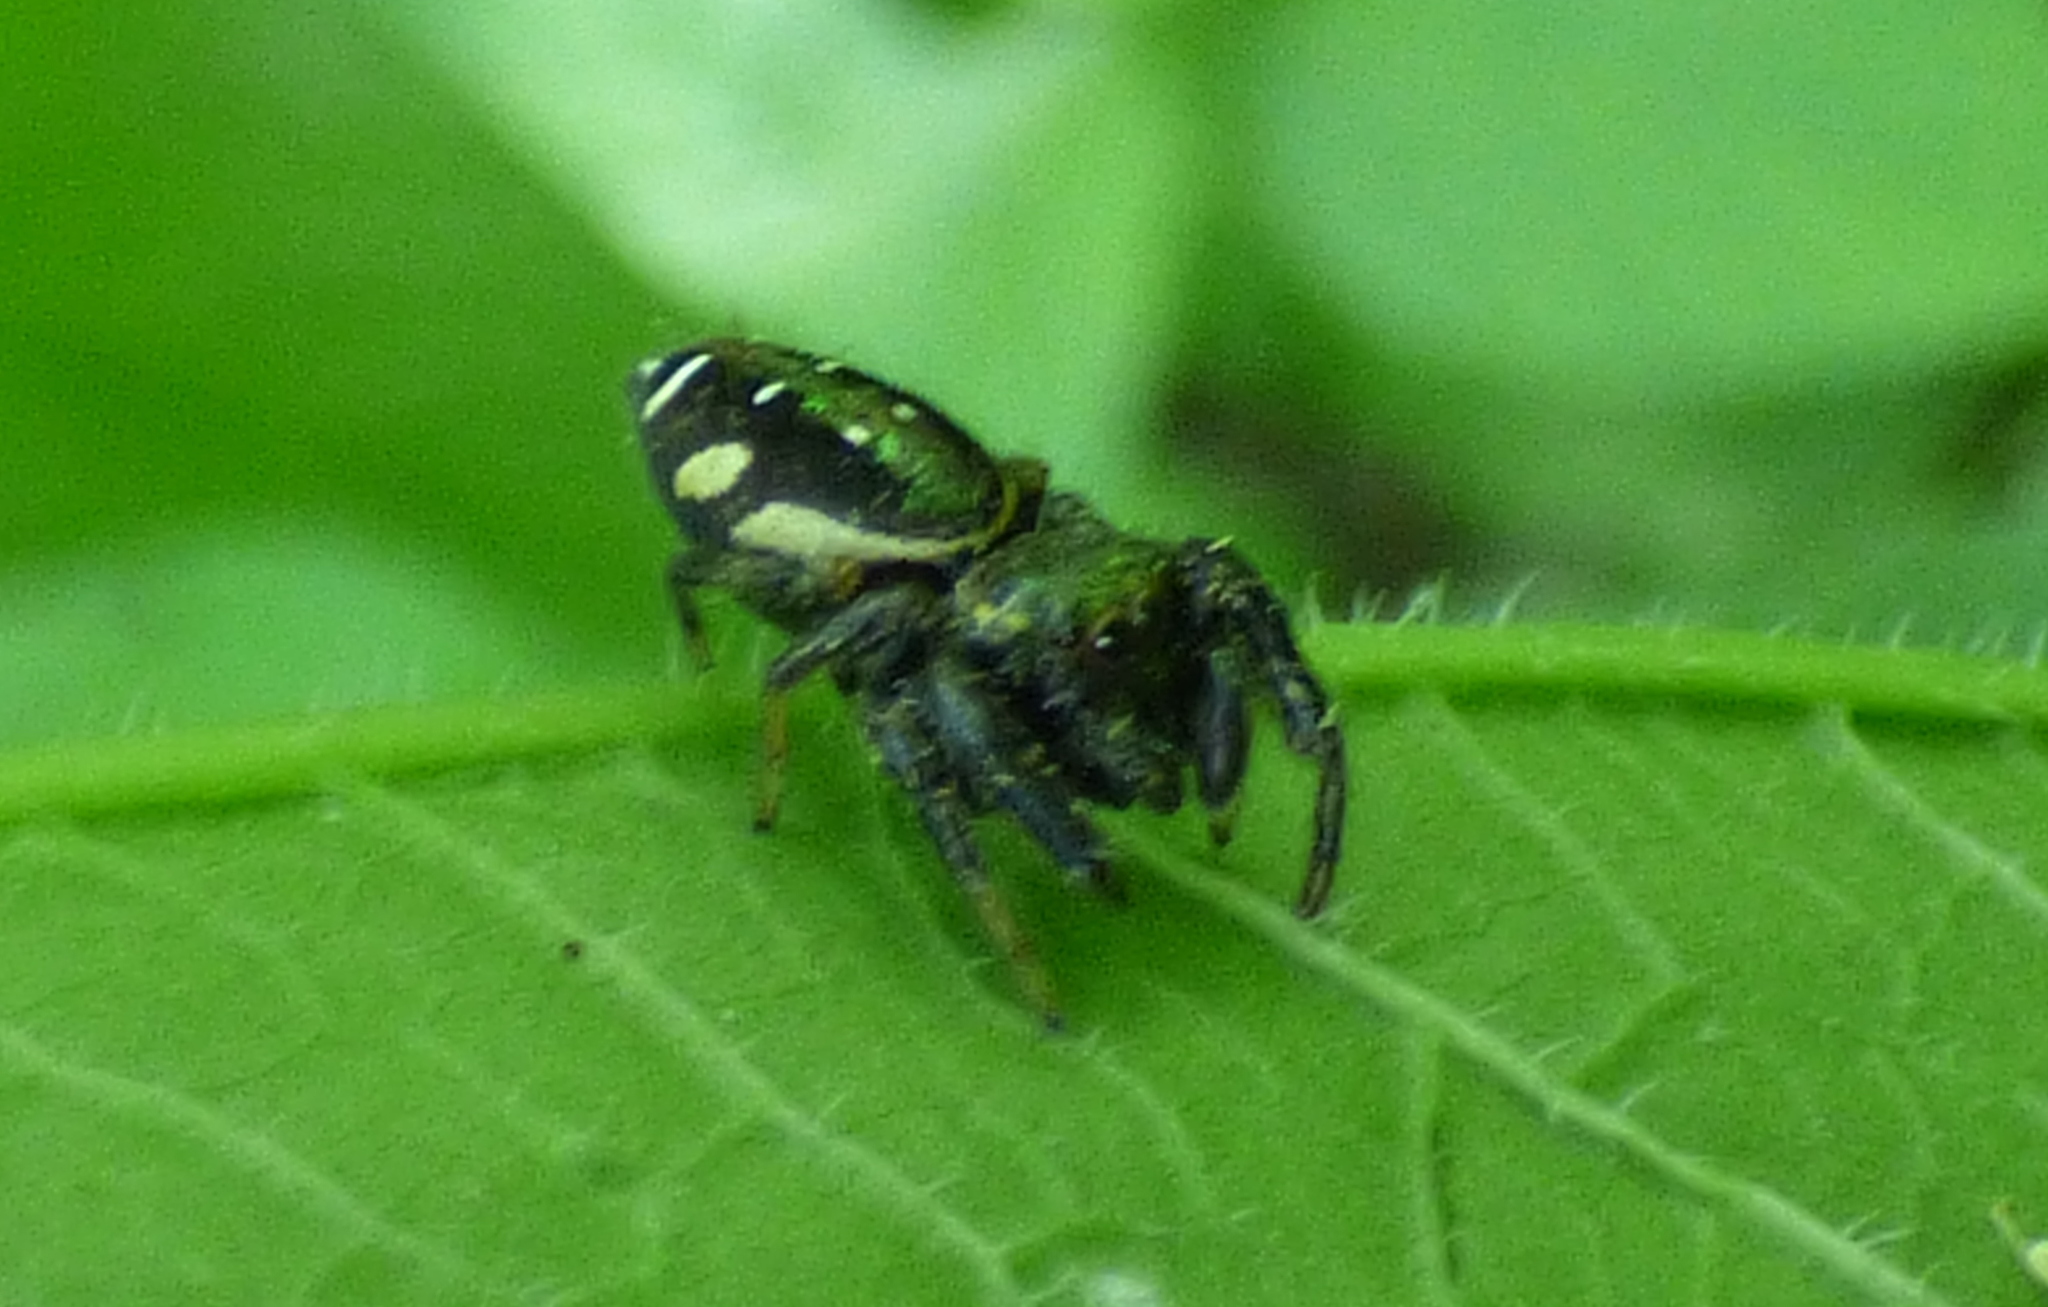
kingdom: Animalia
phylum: Arthropoda
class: Arachnida
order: Araneae
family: Salticidae
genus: Paraphidippus
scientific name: Paraphidippus aurantius
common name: Jumping spiders
